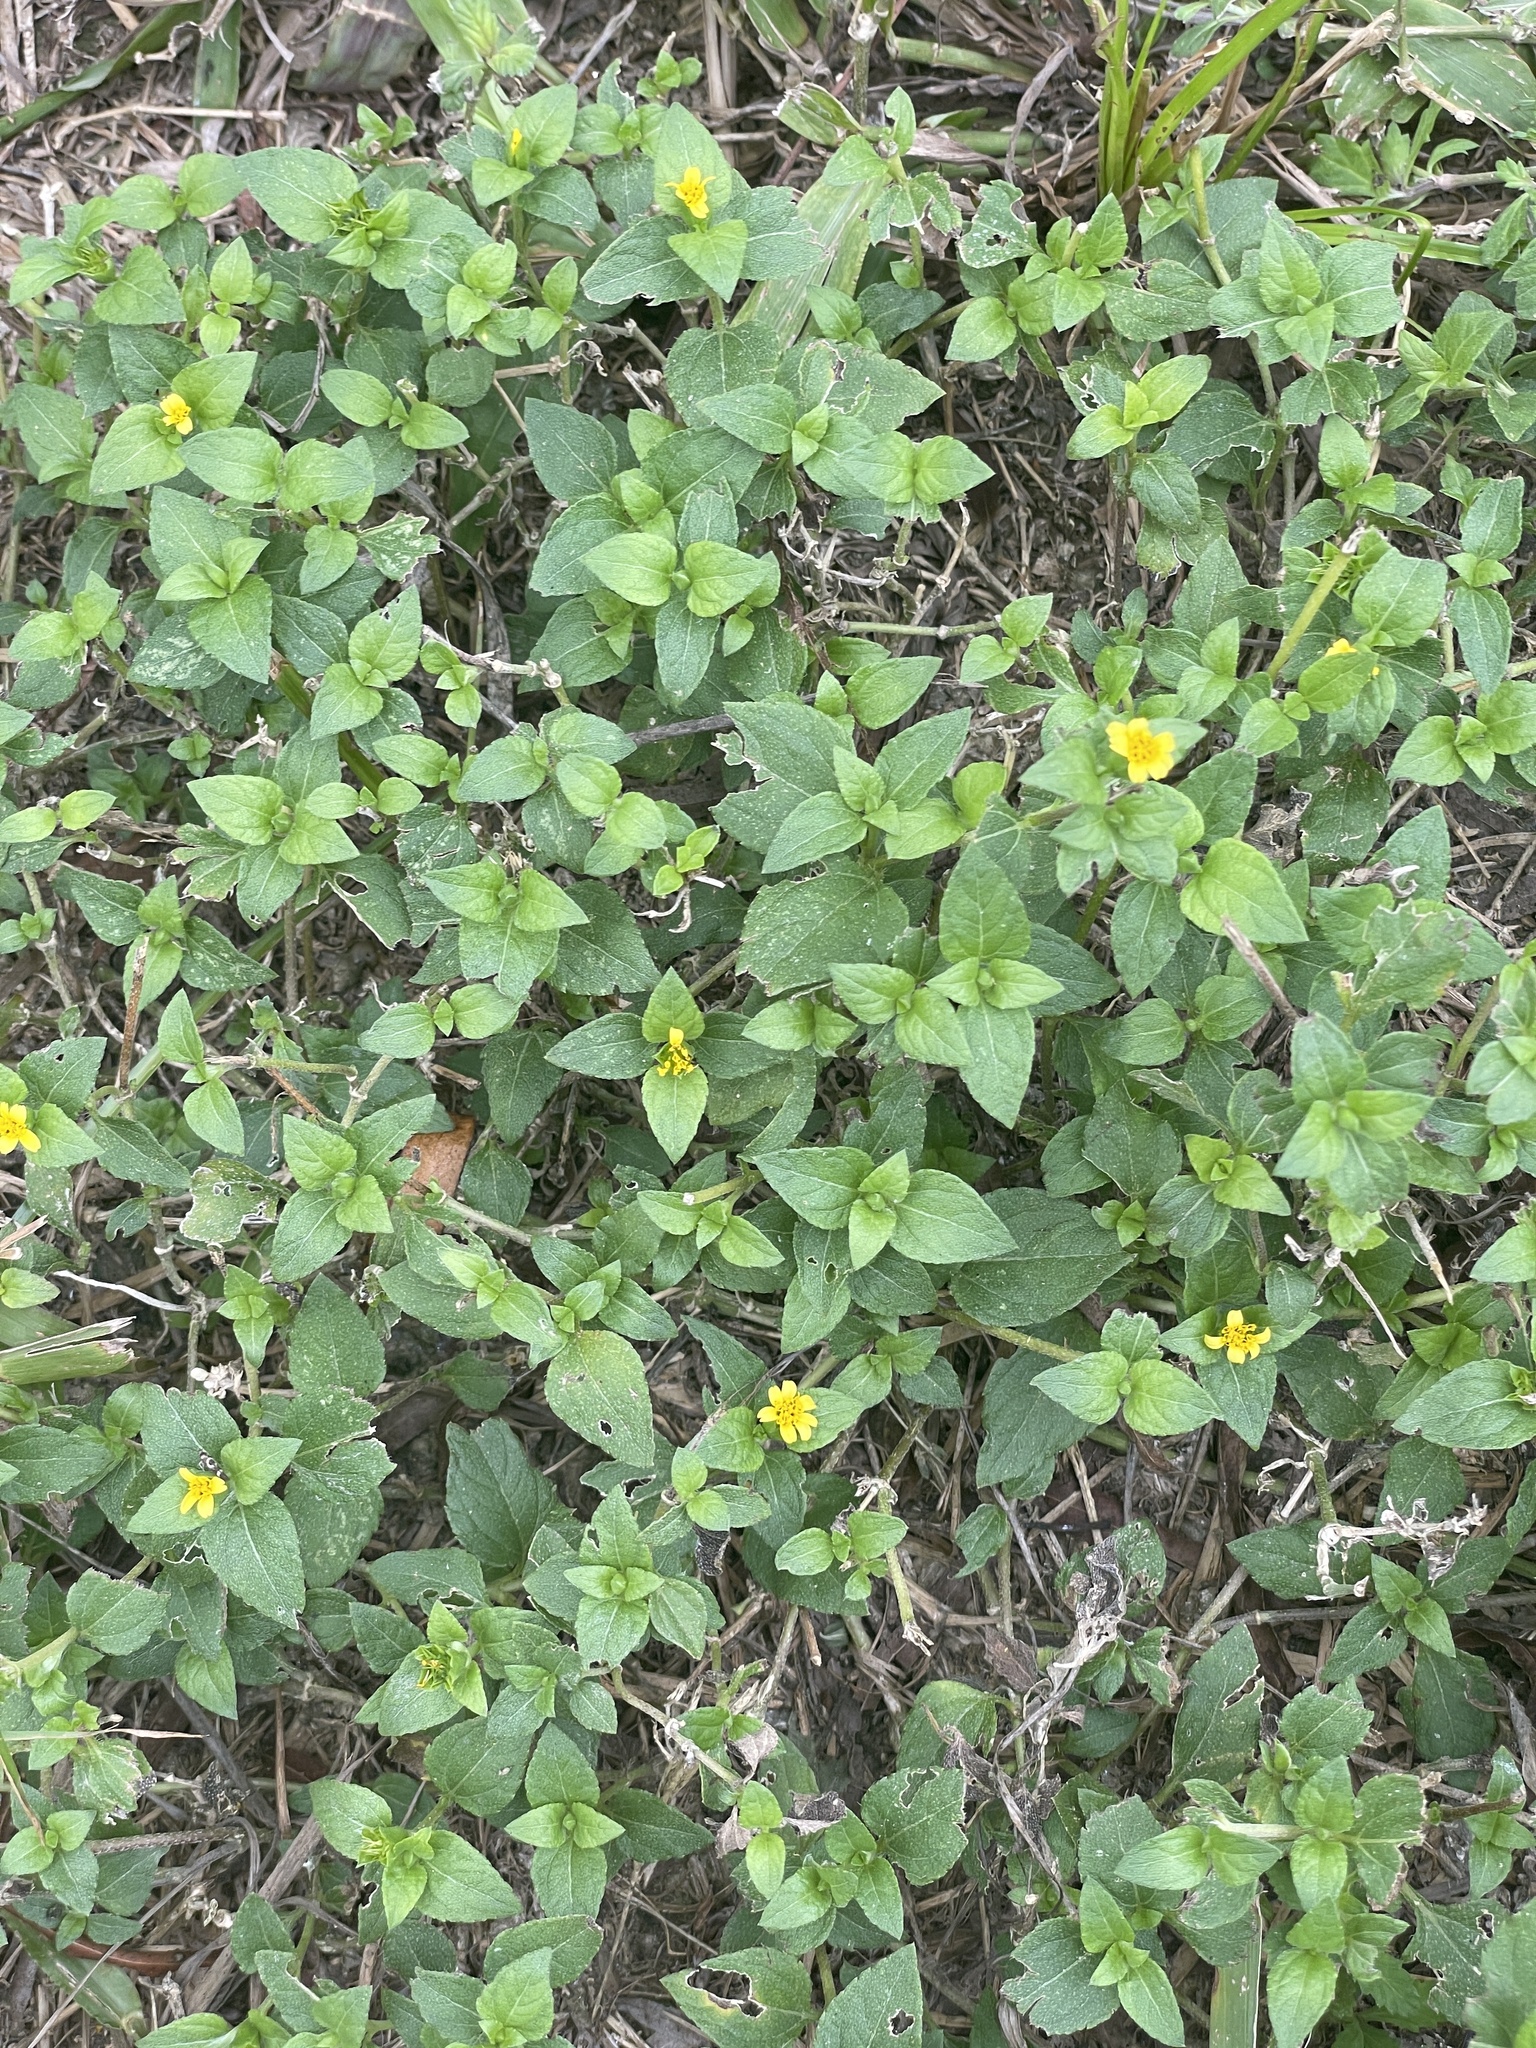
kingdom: Plantae
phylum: Tracheophyta
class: Magnoliopsida
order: Asterales
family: Asteraceae
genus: Calyptocarpus
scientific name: Calyptocarpus vialis
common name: Straggler daisy
